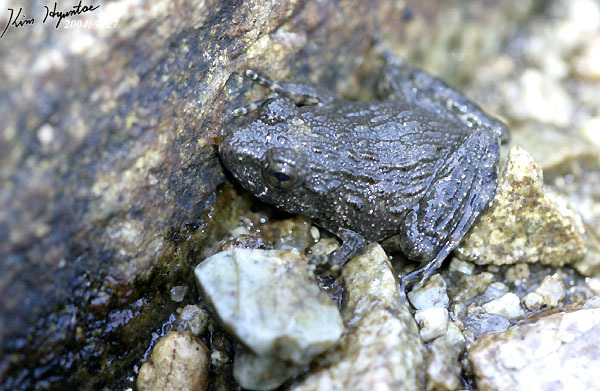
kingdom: Animalia
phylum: Chordata
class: Amphibia
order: Anura
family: Ranidae
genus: Glandirana
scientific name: Glandirana emeljanovi
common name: Northeast china rough-skinned frog
